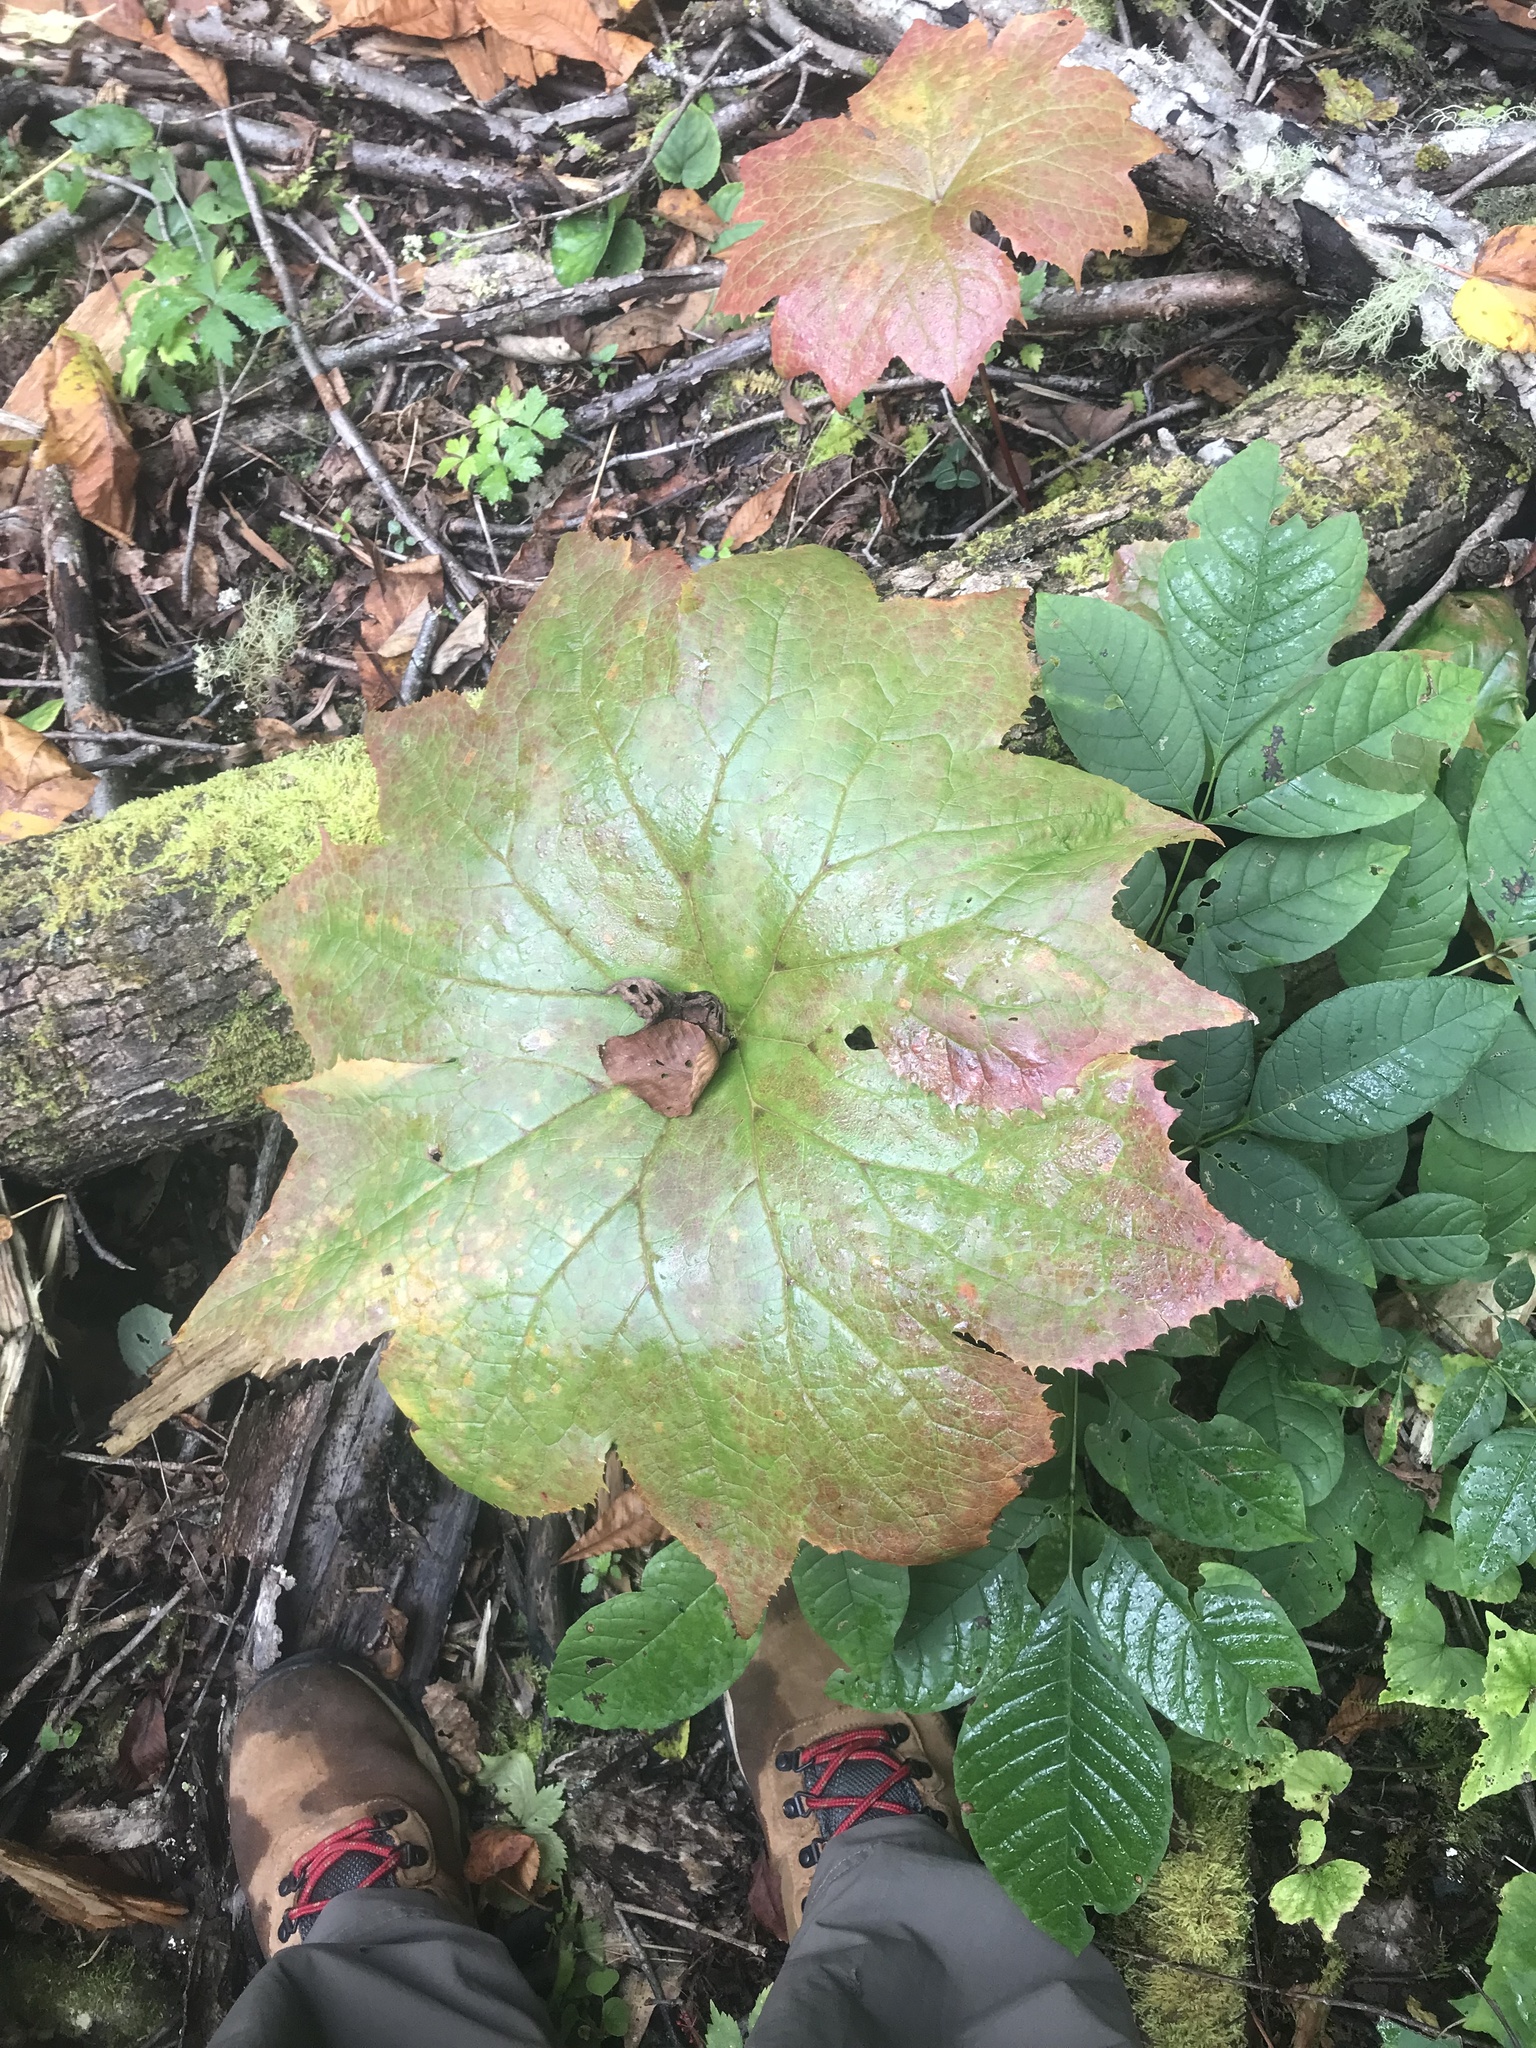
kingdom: Plantae
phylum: Tracheophyta
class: Magnoliopsida
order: Ranunculales
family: Berberidaceae
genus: Diphylleia
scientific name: Diphylleia cymosa
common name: Umbrella-leaf
